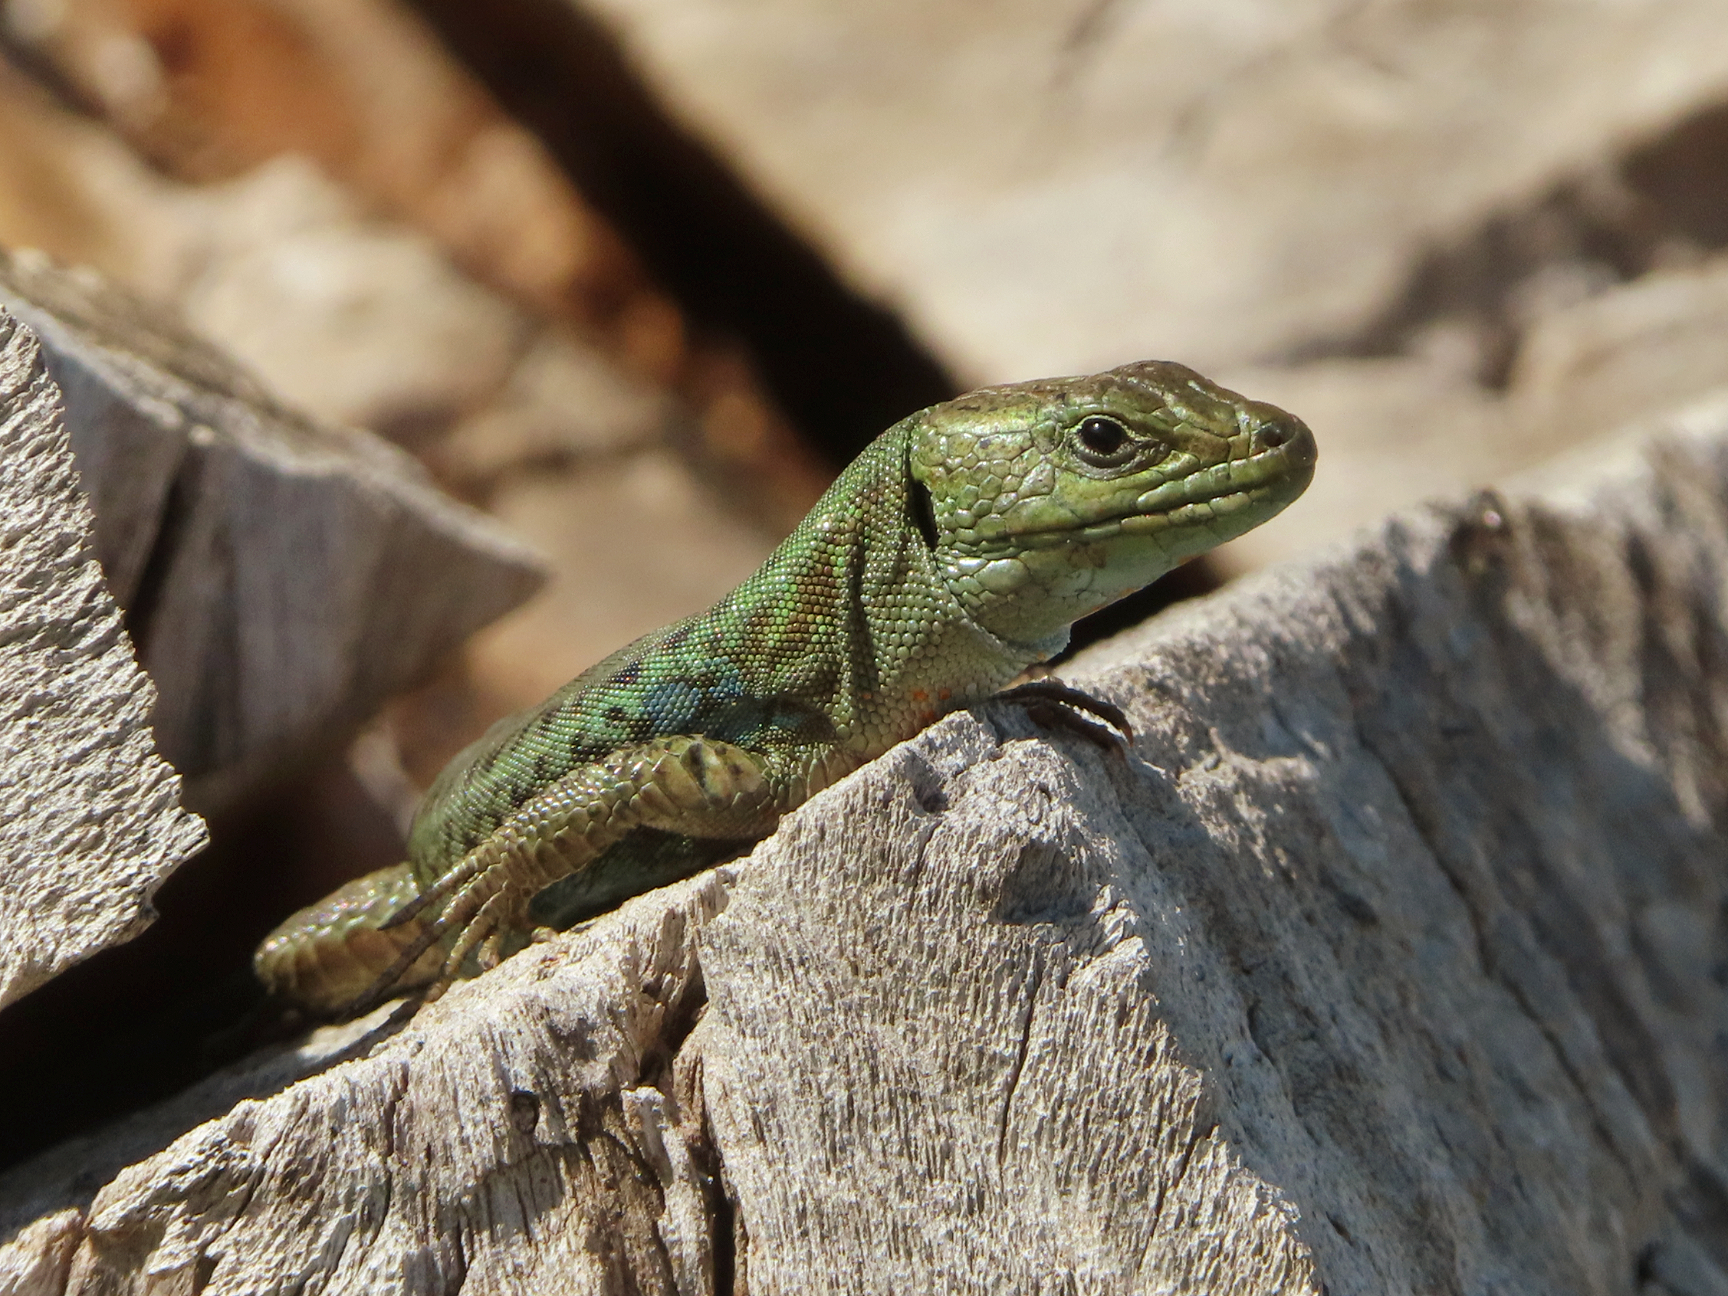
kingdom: Animalia
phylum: Chordata
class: Squamata
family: Lacertidae
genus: Podarcis
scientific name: Podarcis peloponnesiacus
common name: Peloponnese wall lizard
